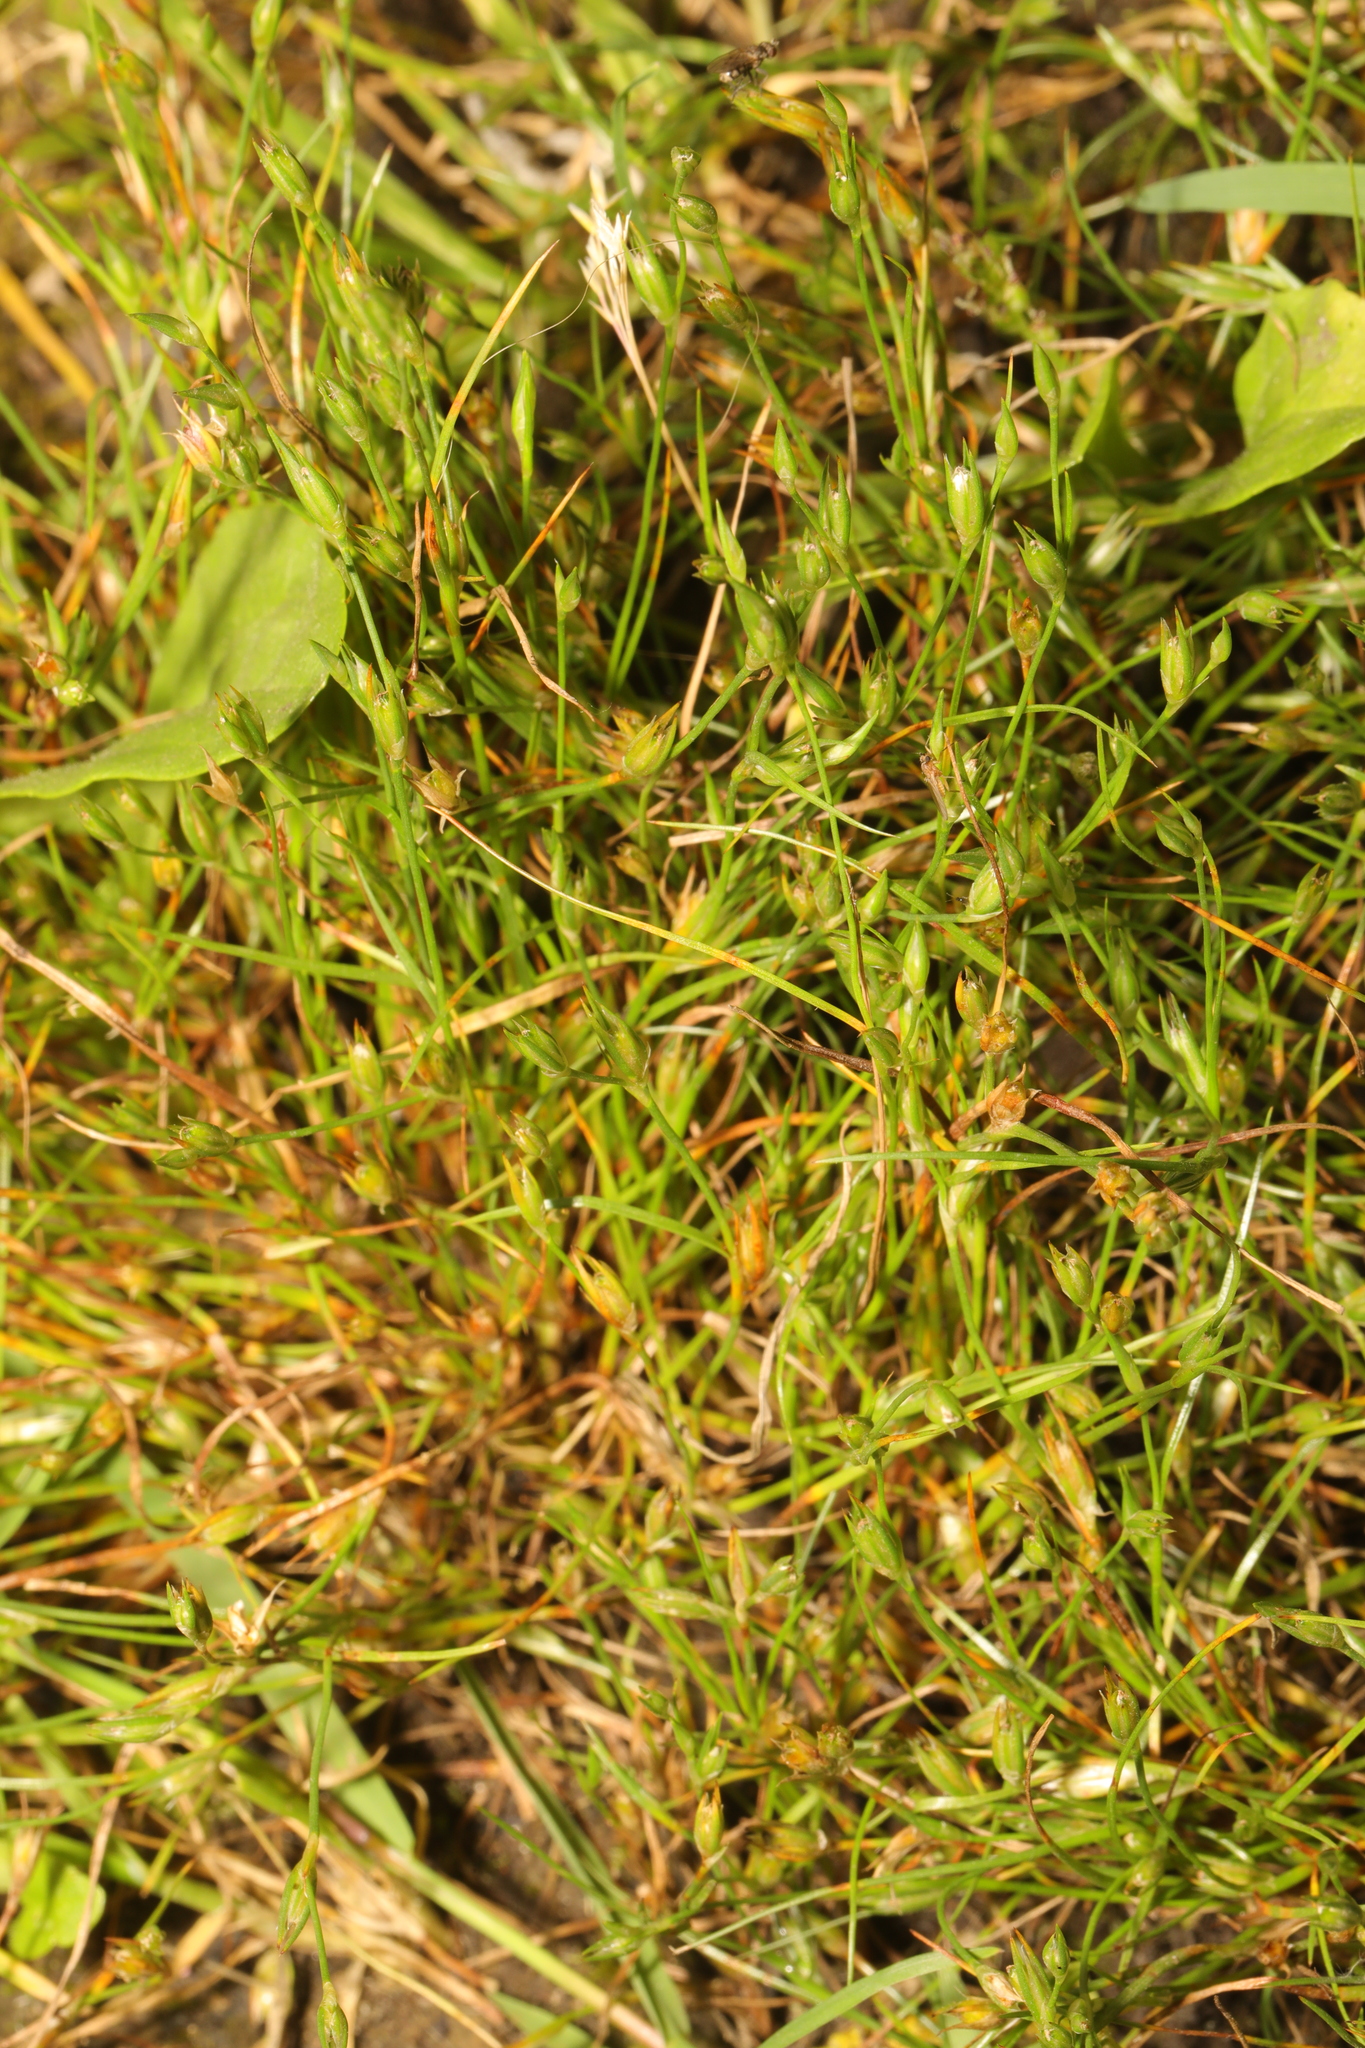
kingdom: Plantae
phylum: Tracheophyta
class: Liliopsida
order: Poales
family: Juncaceae
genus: Juncus
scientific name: Juncus bufonius
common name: Toad rush
